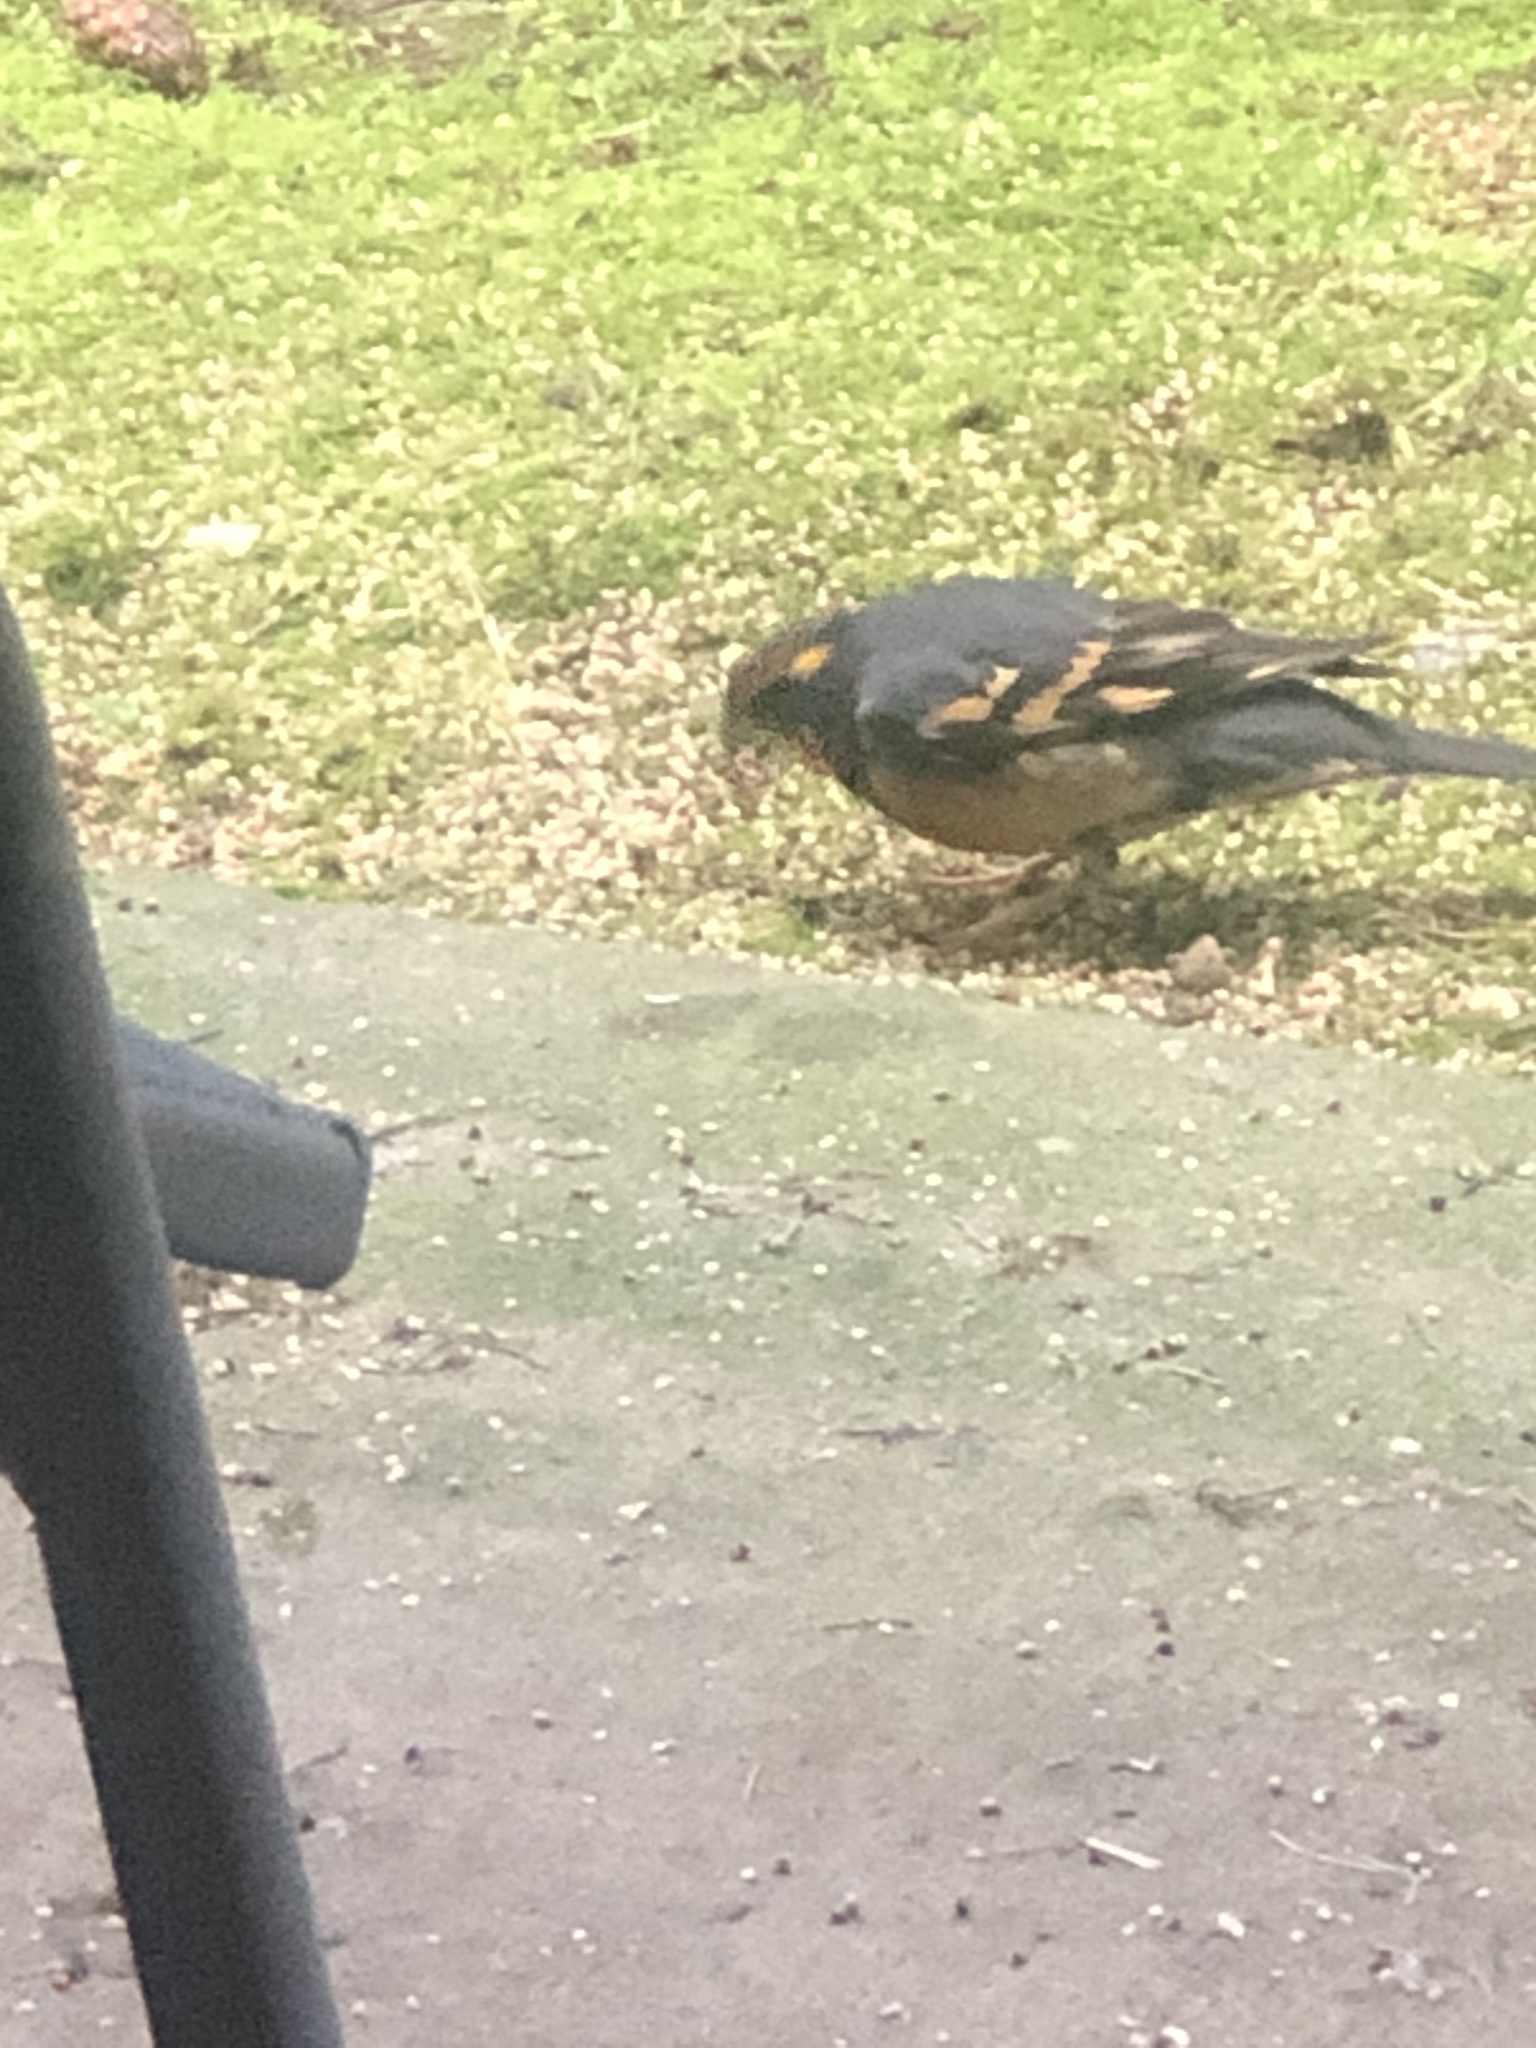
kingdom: Animalia
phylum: Chordata
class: Aves
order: Passeriformes
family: Turdidae
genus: Ixoreus
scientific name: Ixoreus naevius
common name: Varied thrush
